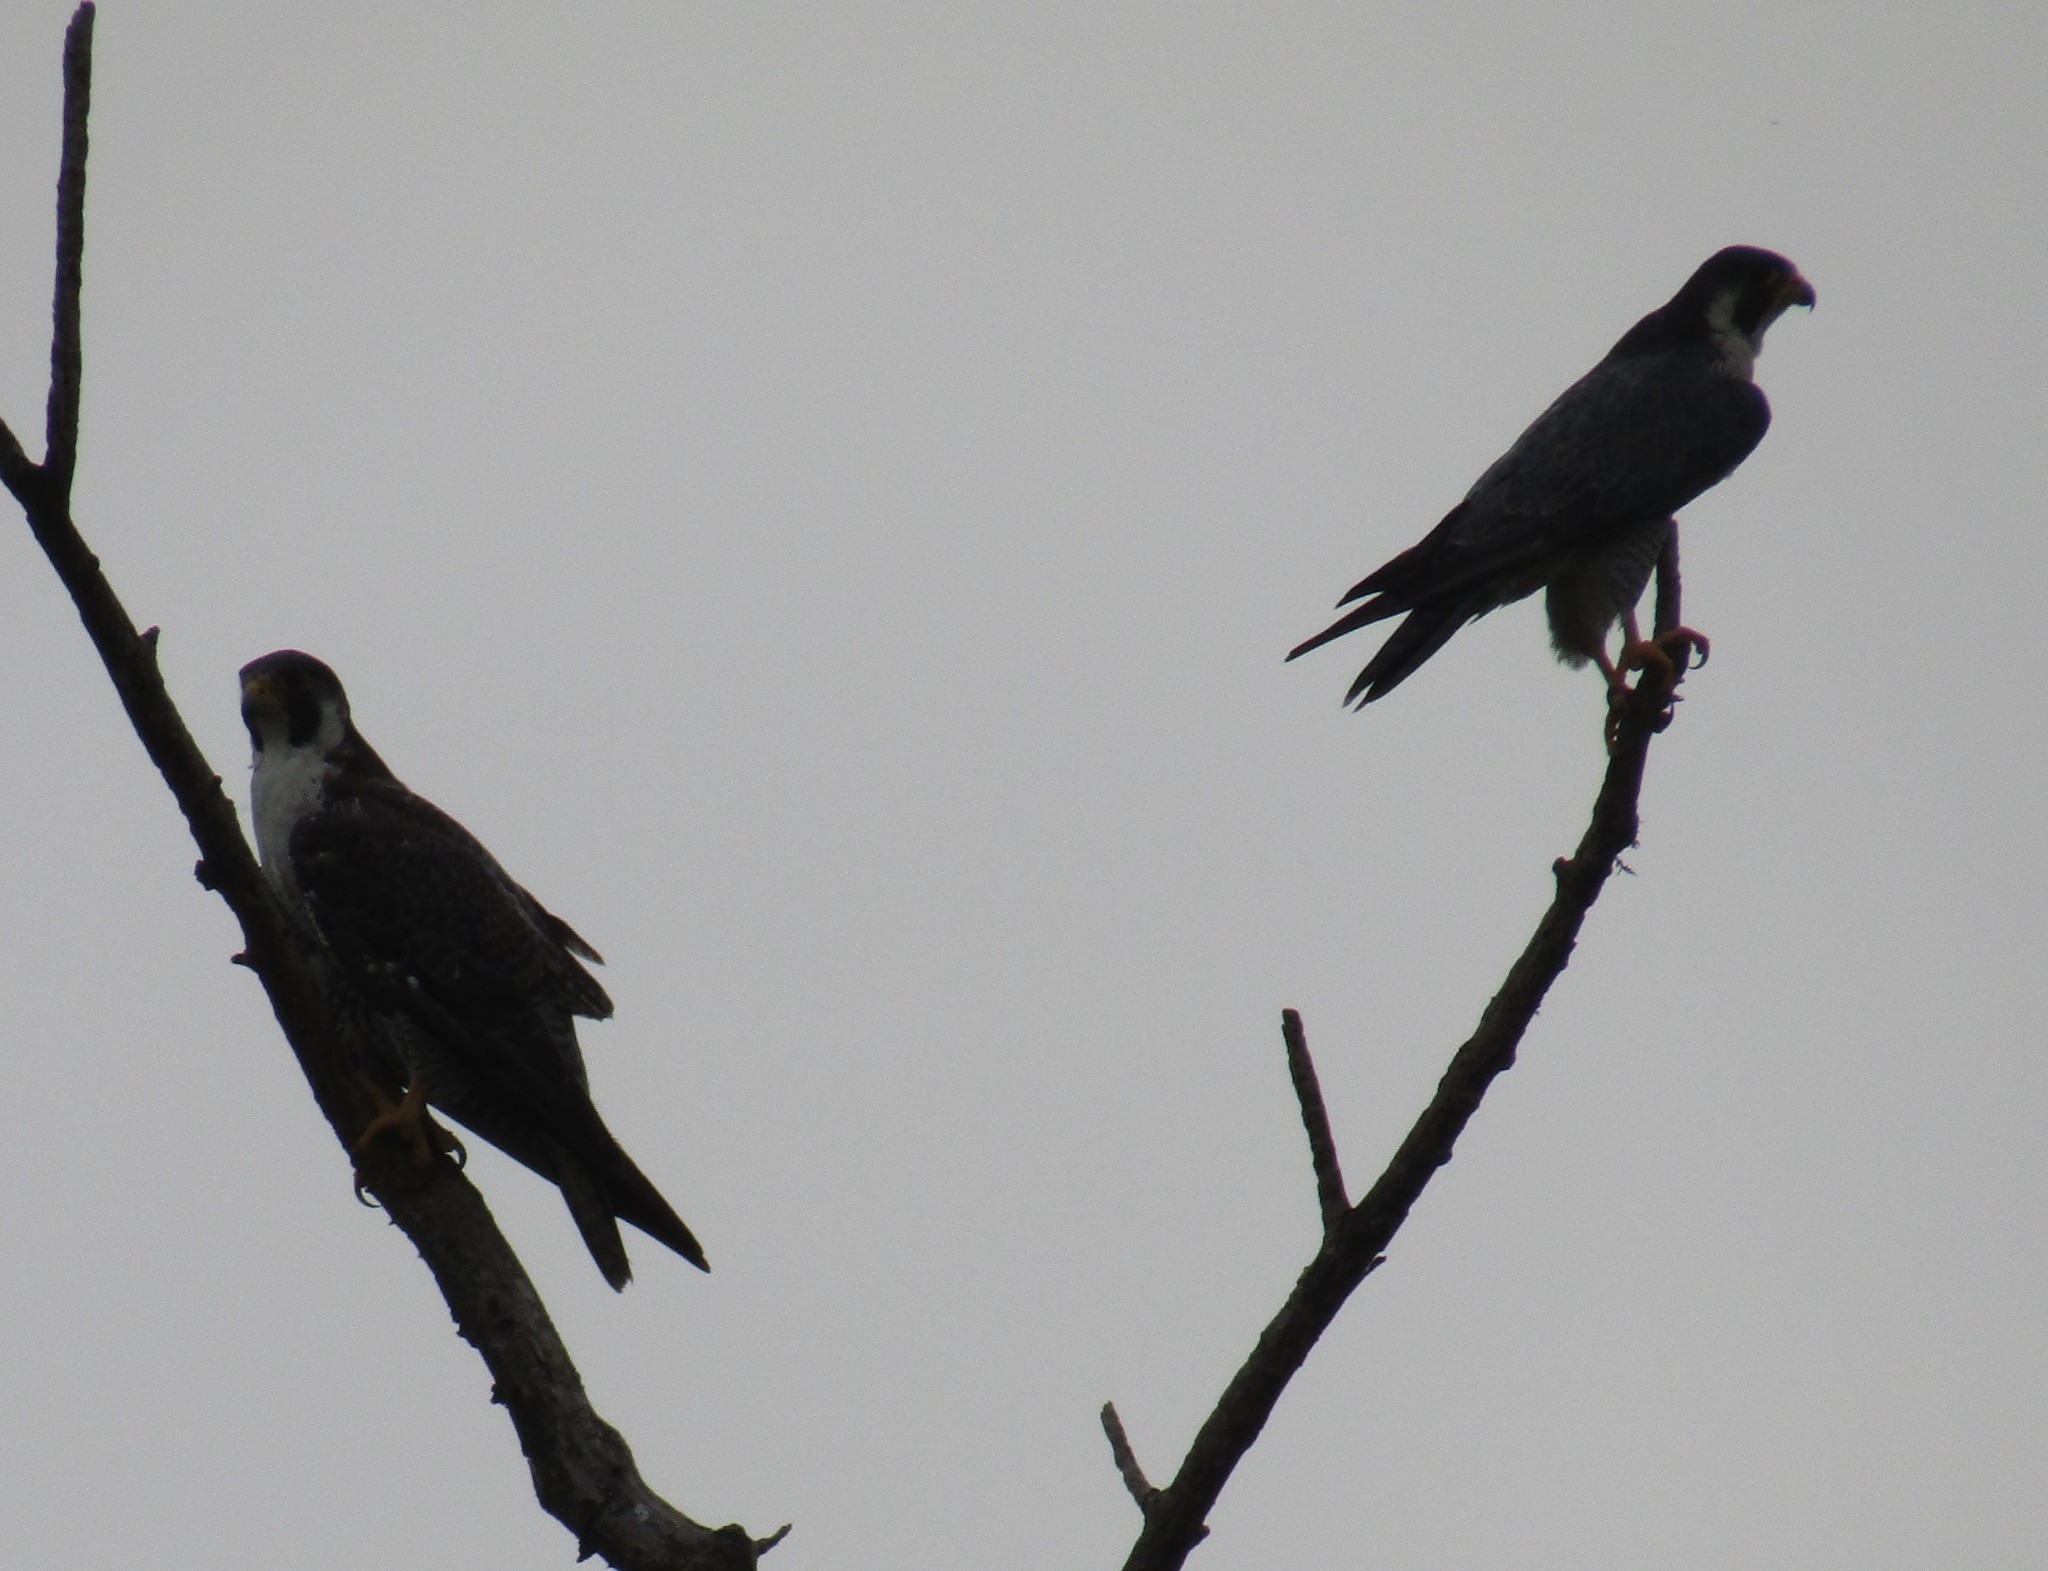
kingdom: Animalia
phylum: Chordata
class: Aves
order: Falconiformes
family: Falconidae
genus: Falco
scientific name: Falco peregrinus
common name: Peregrine falcon
